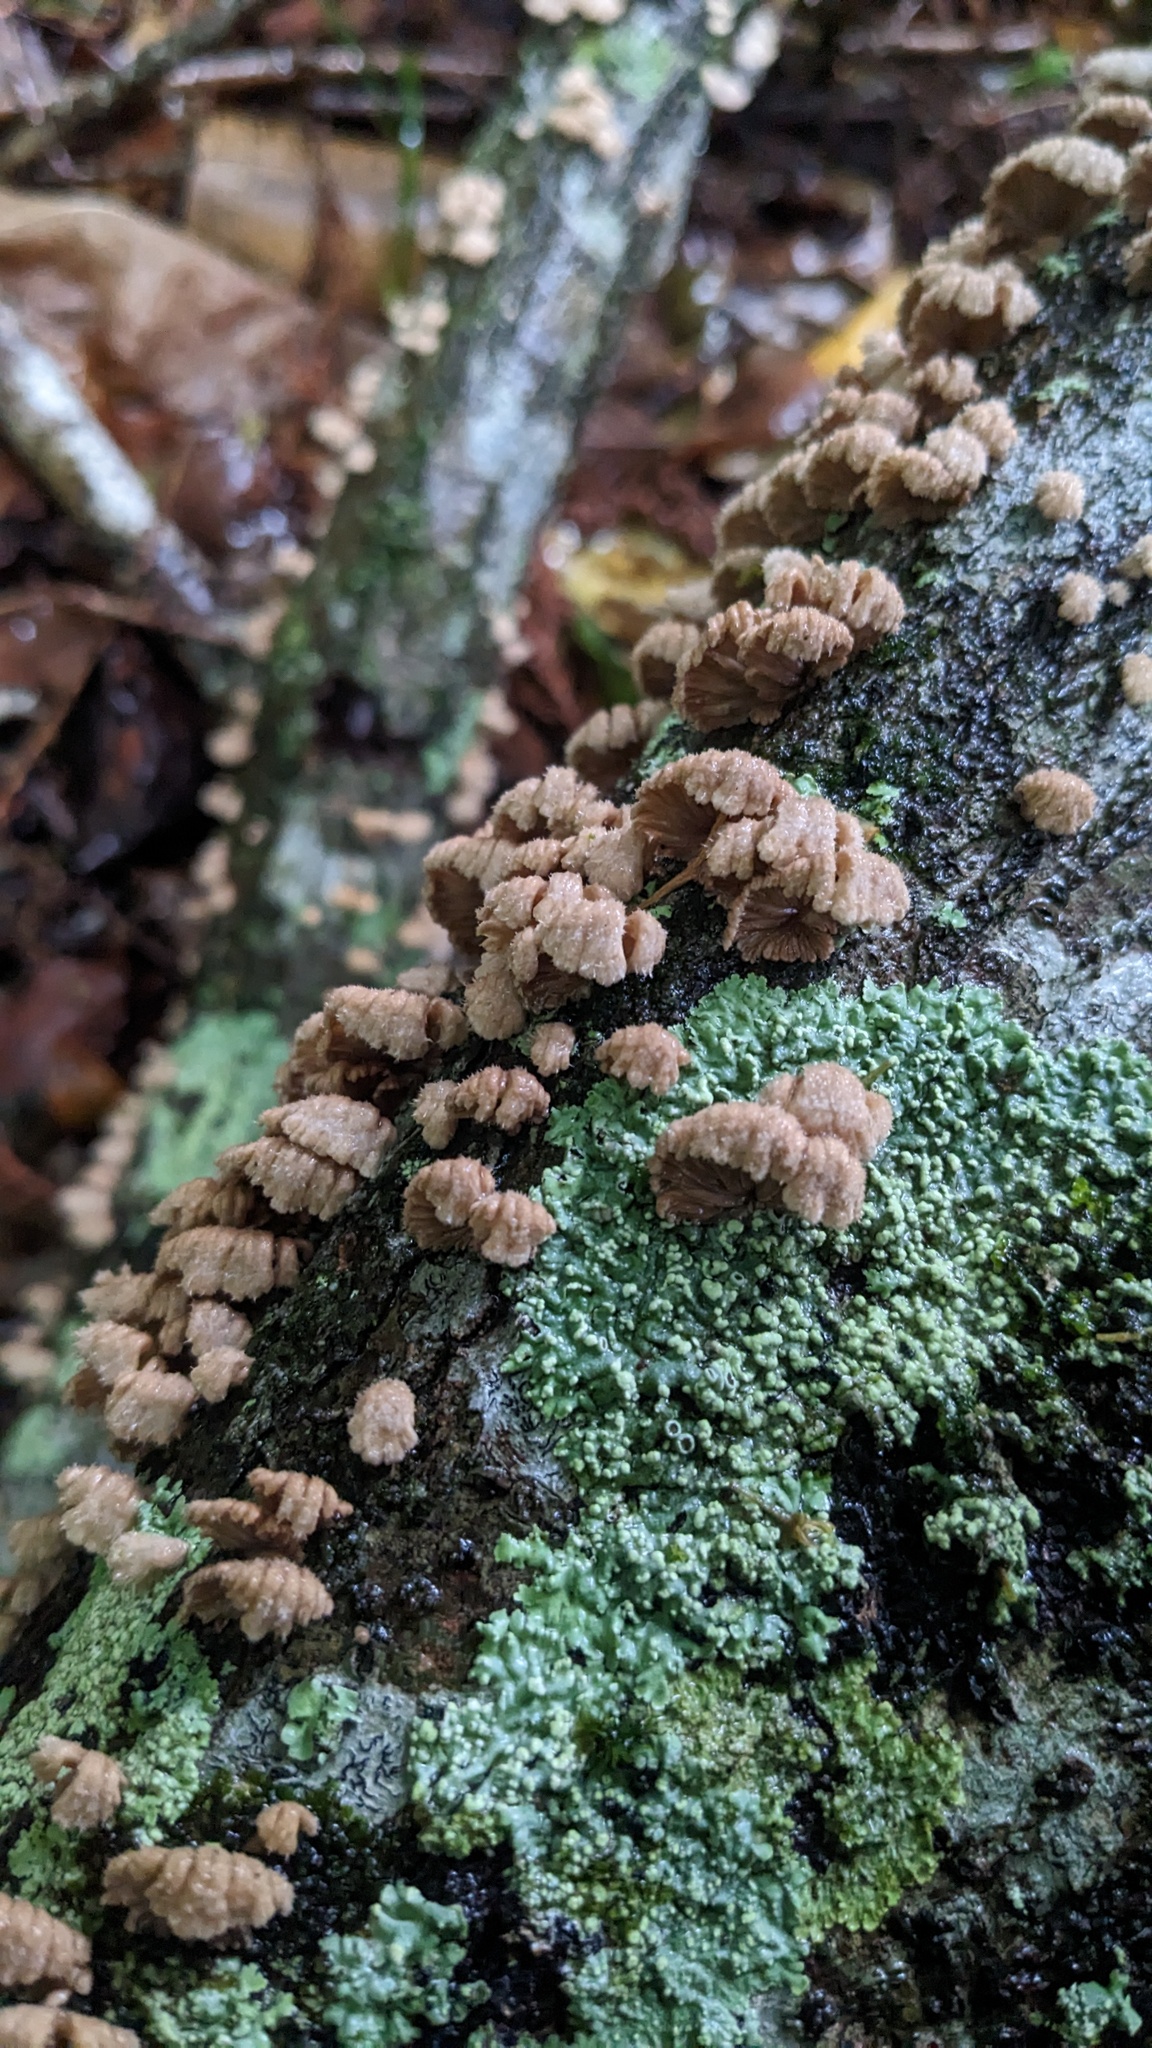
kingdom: Fungi
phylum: Basidiomycota
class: Agaricomycetes
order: Agaricales
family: Schizophyllaceae
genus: Schizophyllum
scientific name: Schizophyllum commune
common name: Common porecrust
